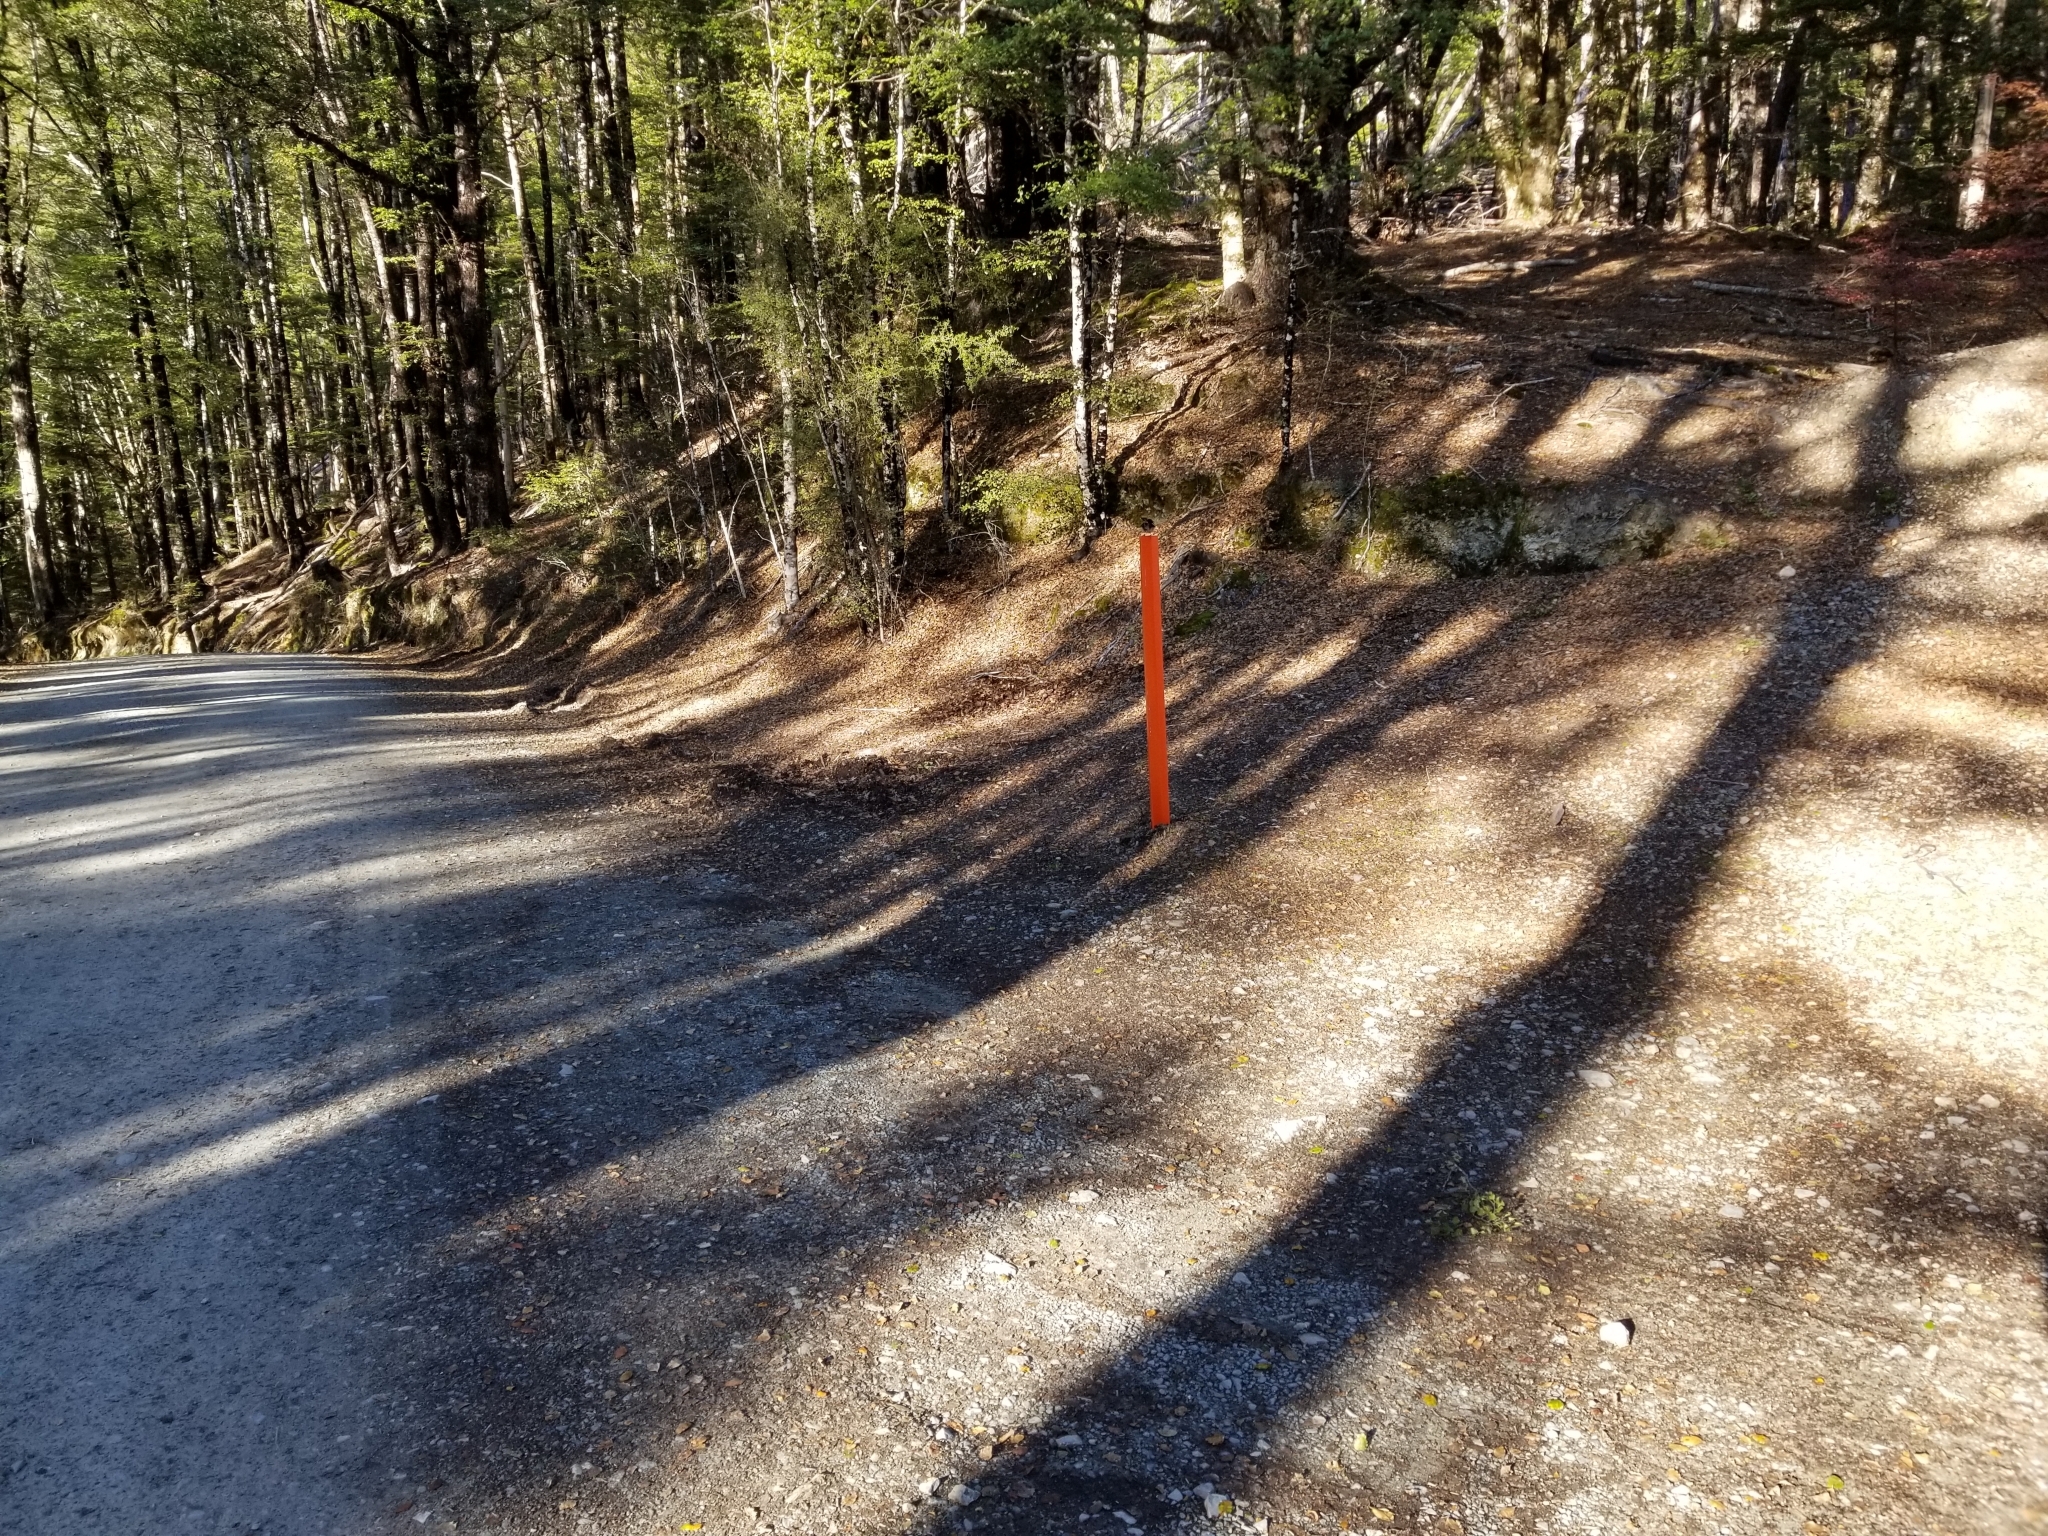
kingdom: Animalia
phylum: Chordata
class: Aves
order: Passeriformes
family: Petroicidae
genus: Petroica
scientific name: Petroica macrocephala
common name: Tomtit
